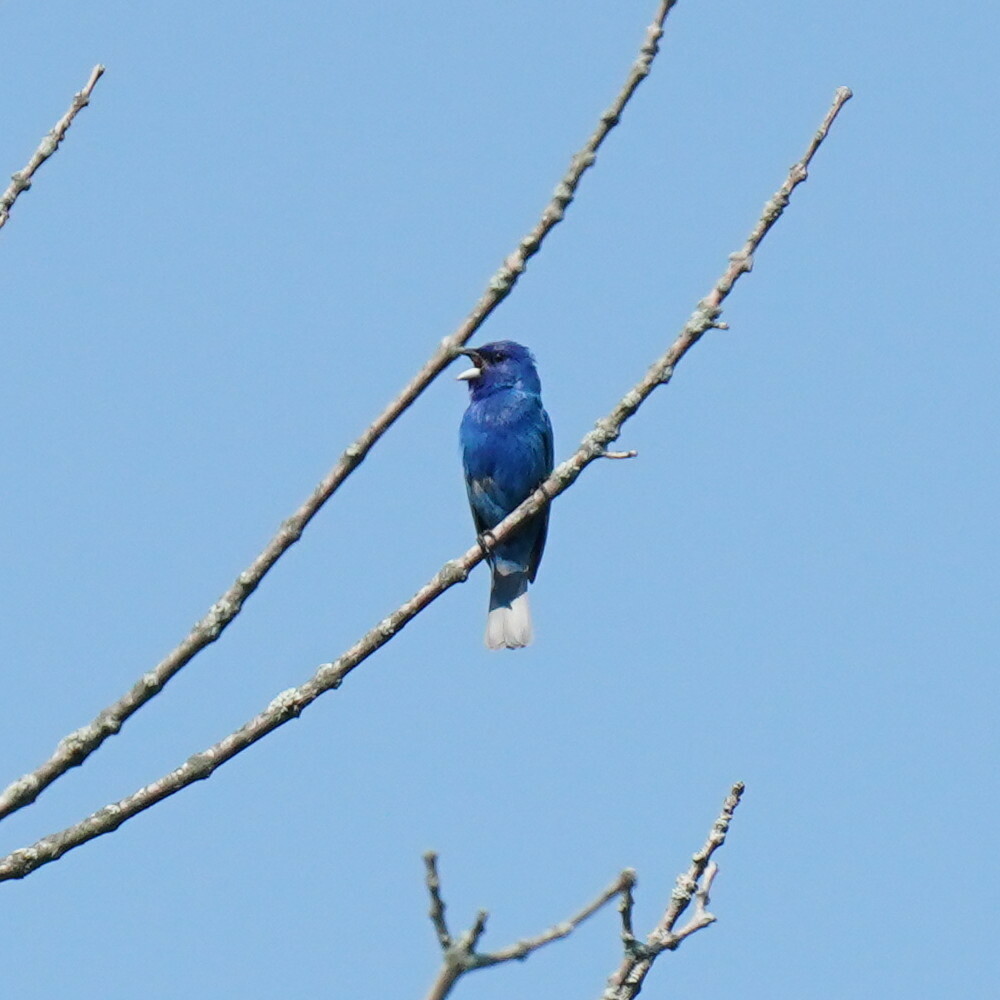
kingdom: Animalia
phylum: Chordata
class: Aves
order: Passeriformes
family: Cardinalidae
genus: Passerina
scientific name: Passerina cyanea
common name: Indigo bunting
